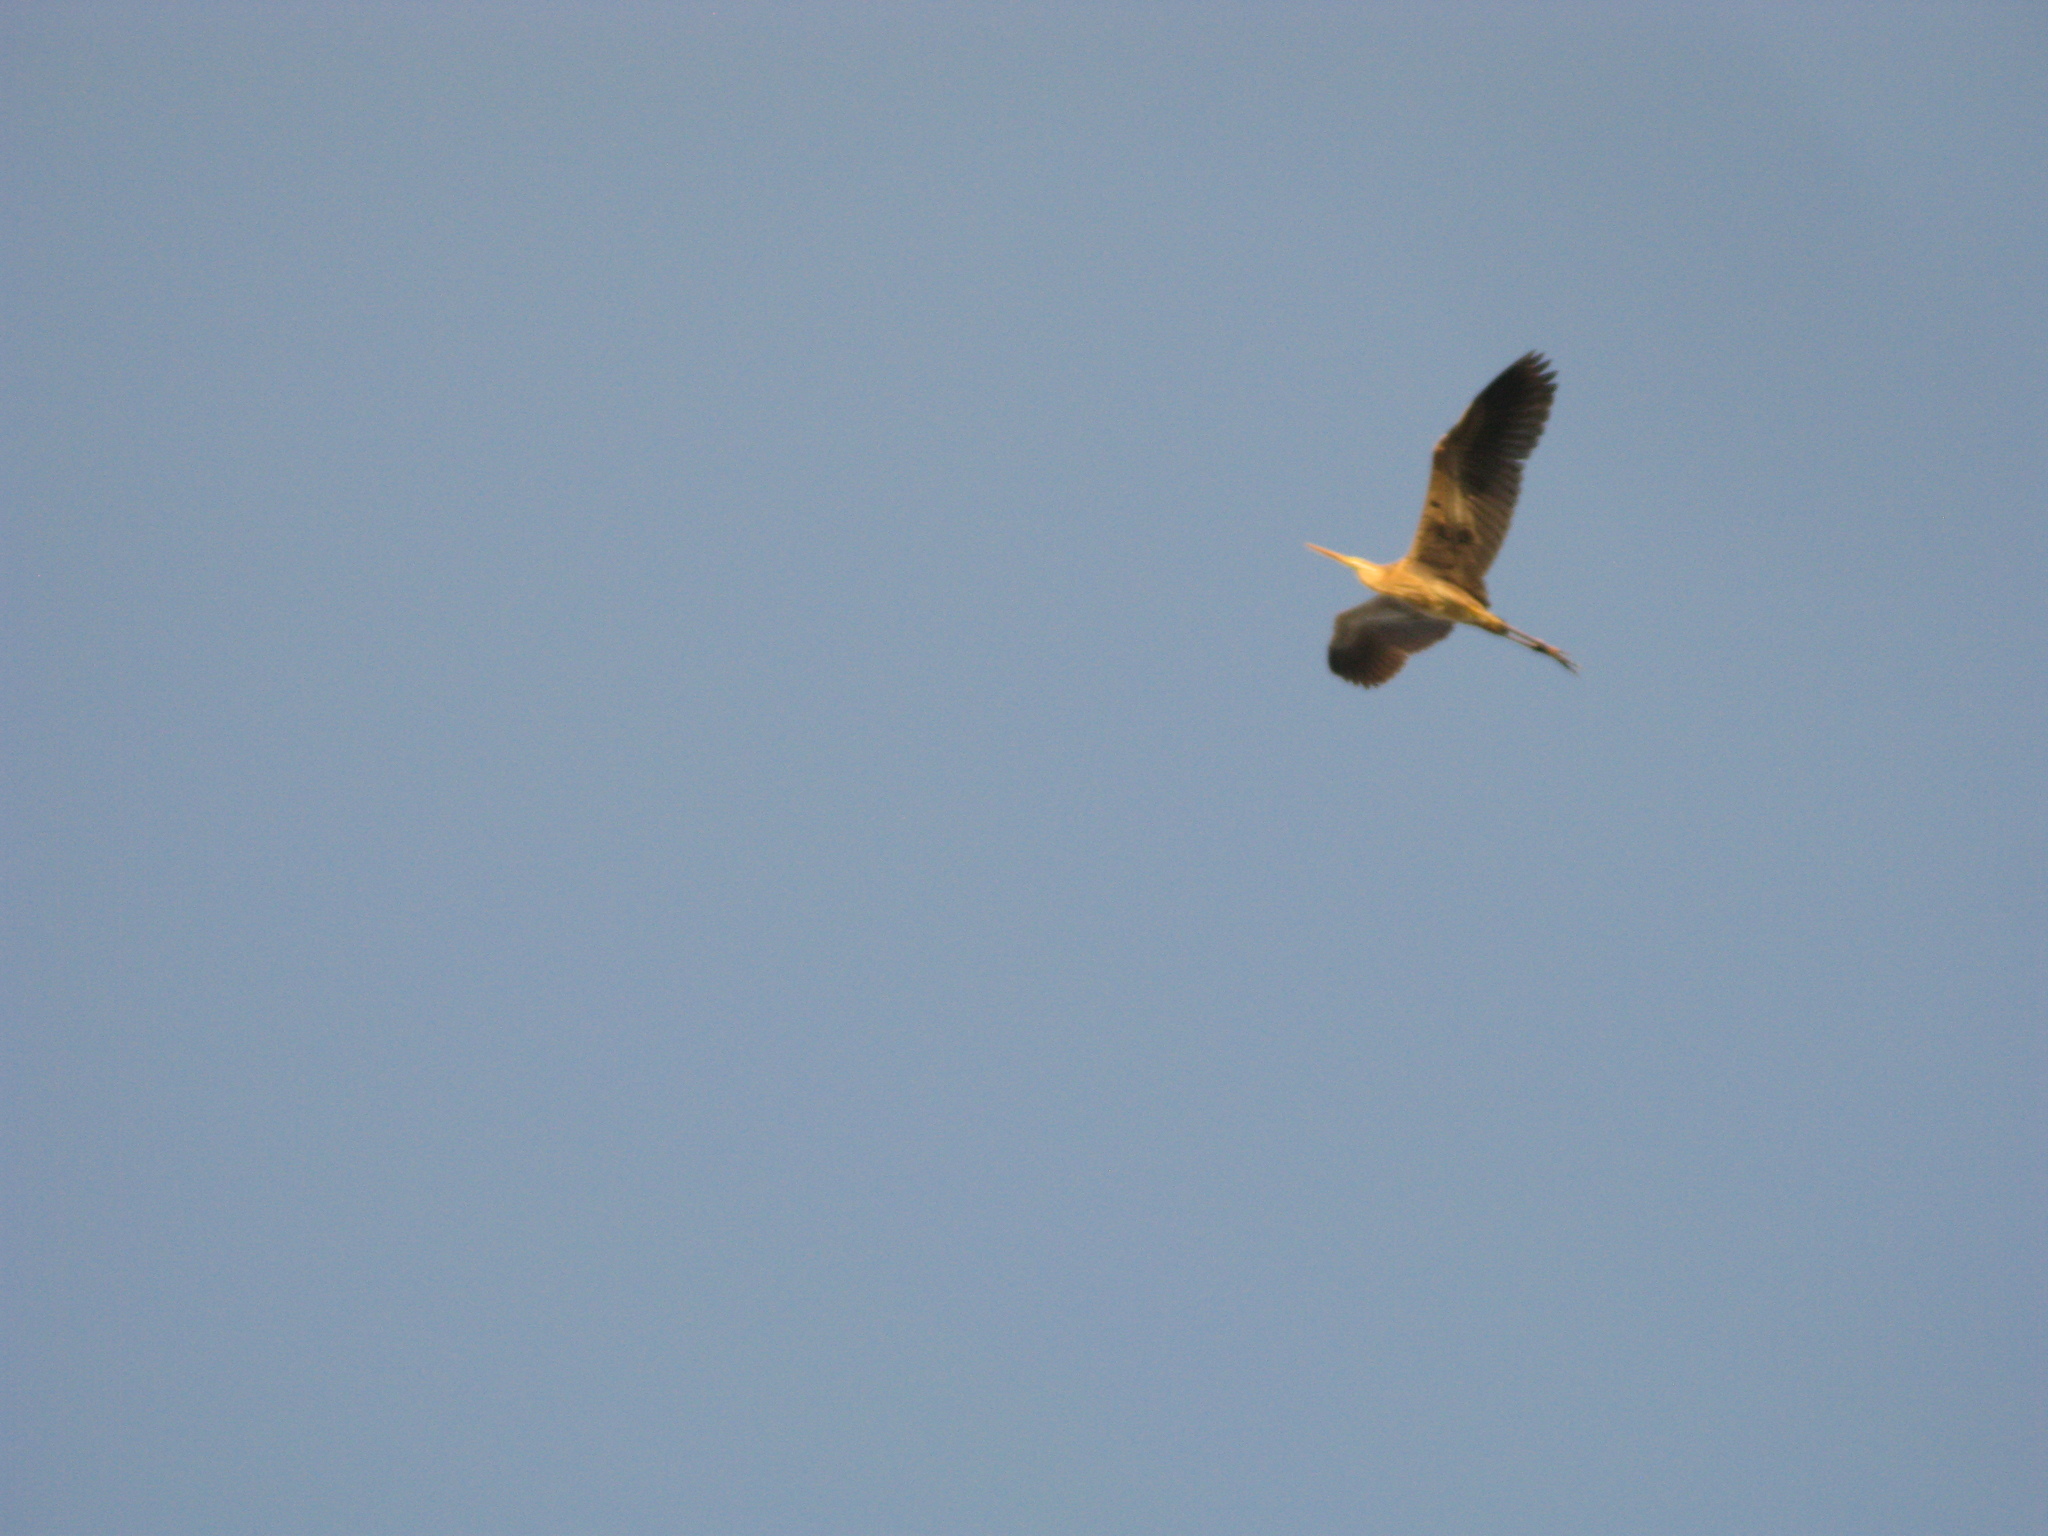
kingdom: Animalia
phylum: Chordata
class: Aves
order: Pelecaniformes
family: Ardeidae
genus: Ardea
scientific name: Ardea purpurea
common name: Purple heron
